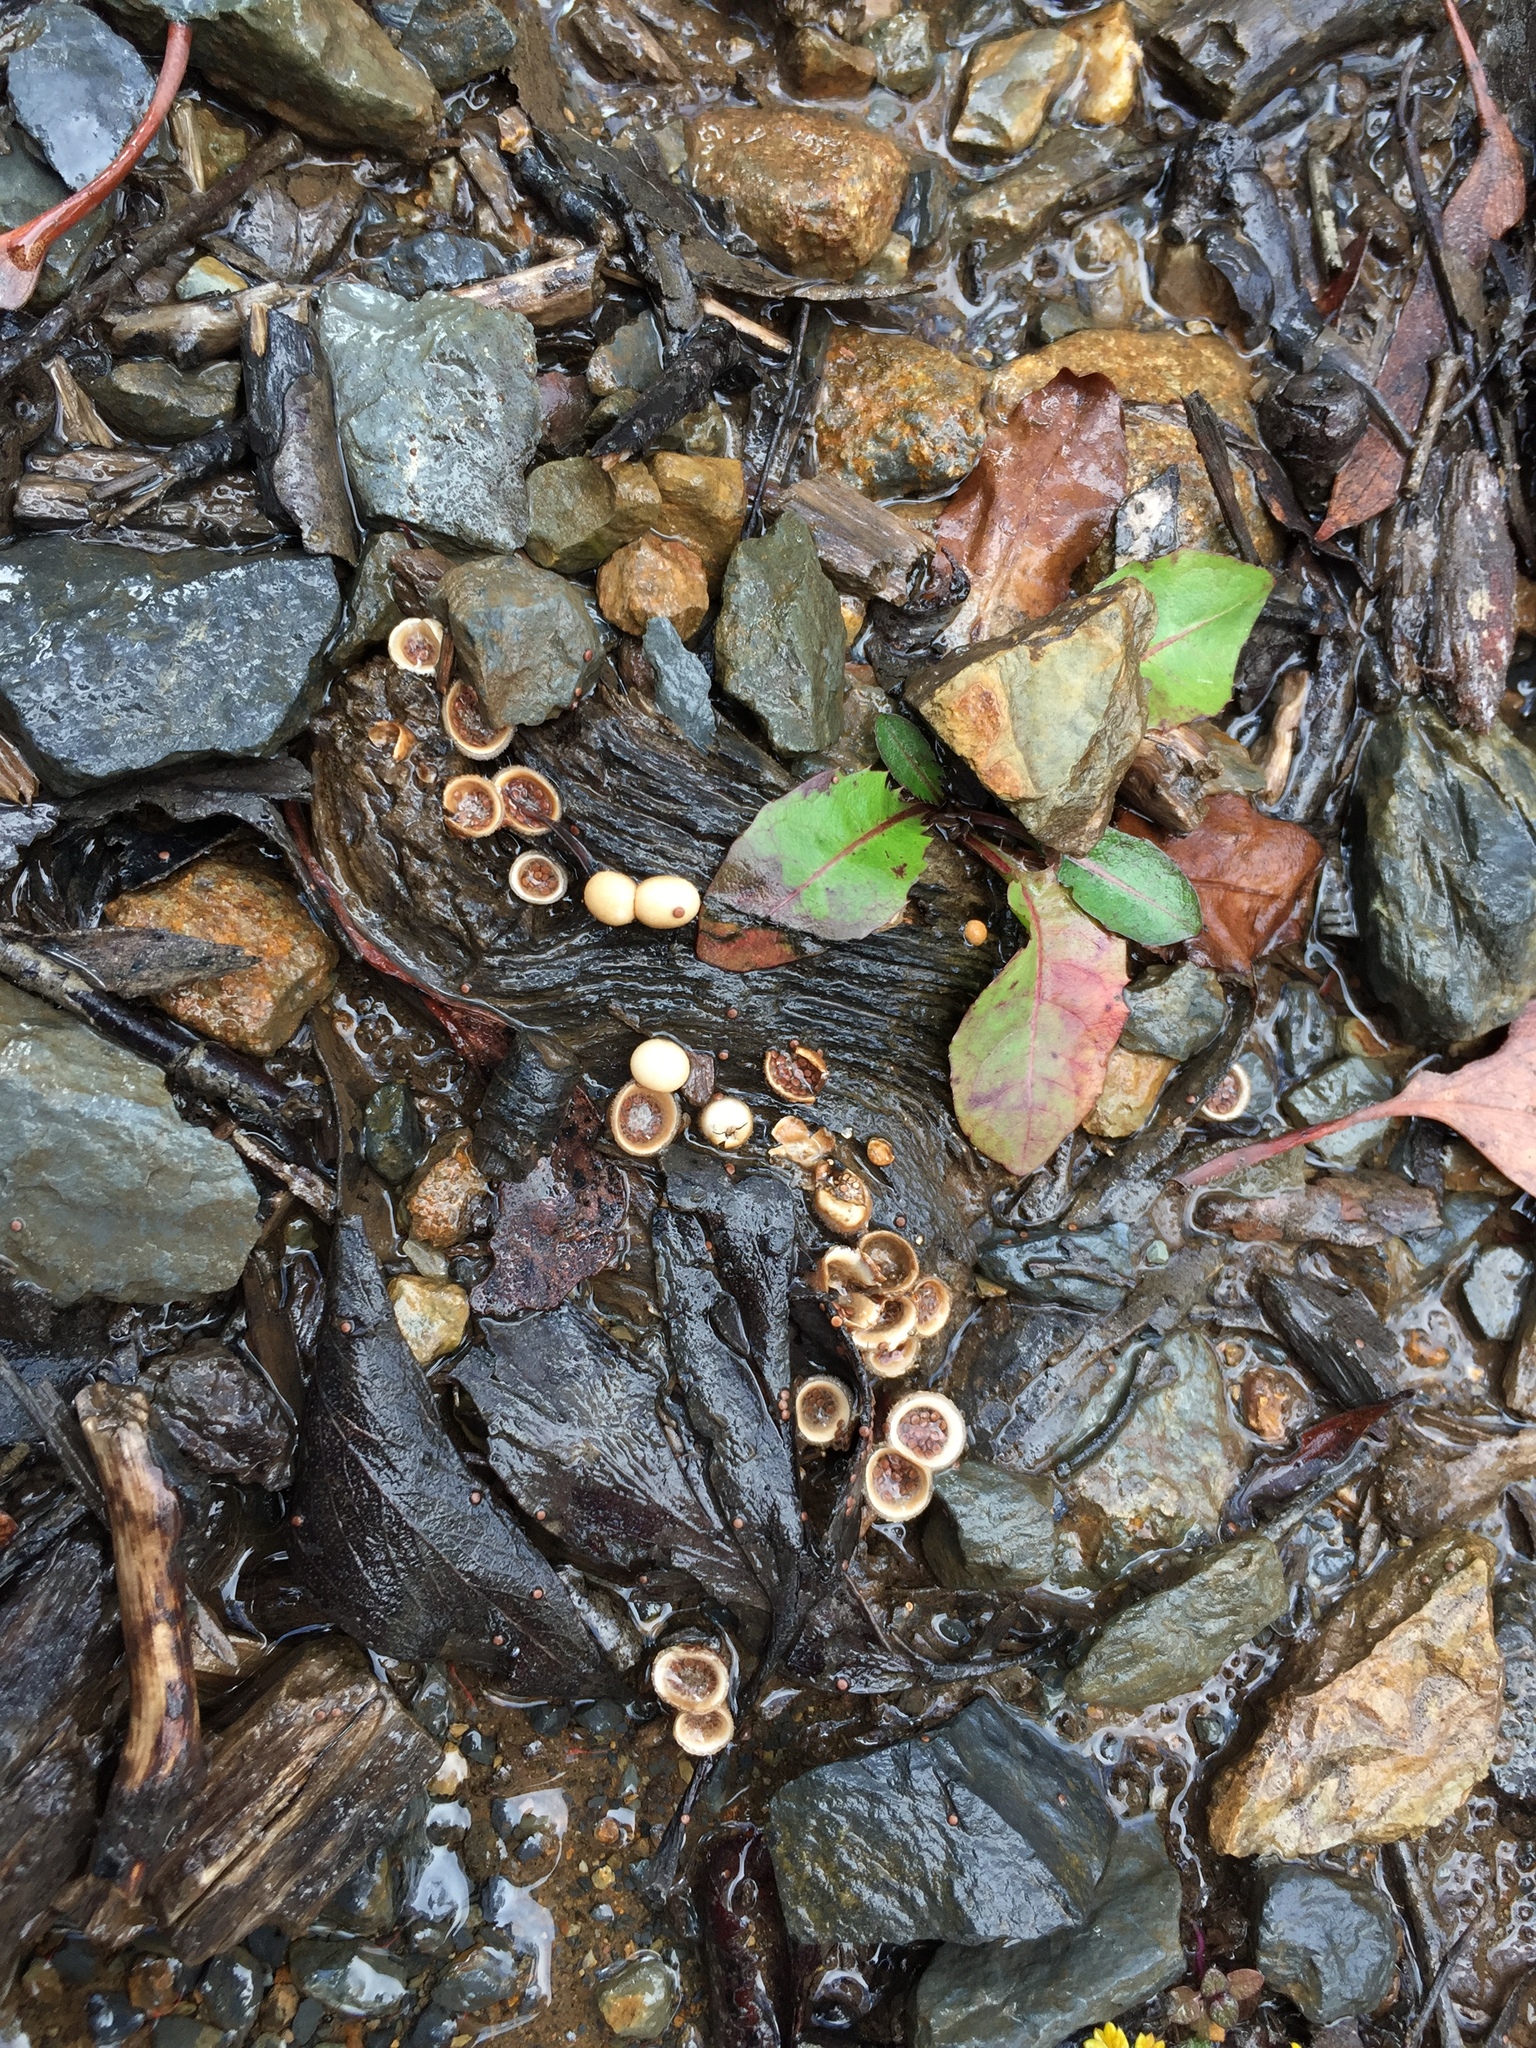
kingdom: Fungi
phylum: Basidiomycota
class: Agaricomycetes
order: Agaricales
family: Agaricaceae
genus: Nidula
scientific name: Nidula niveotomentosa
